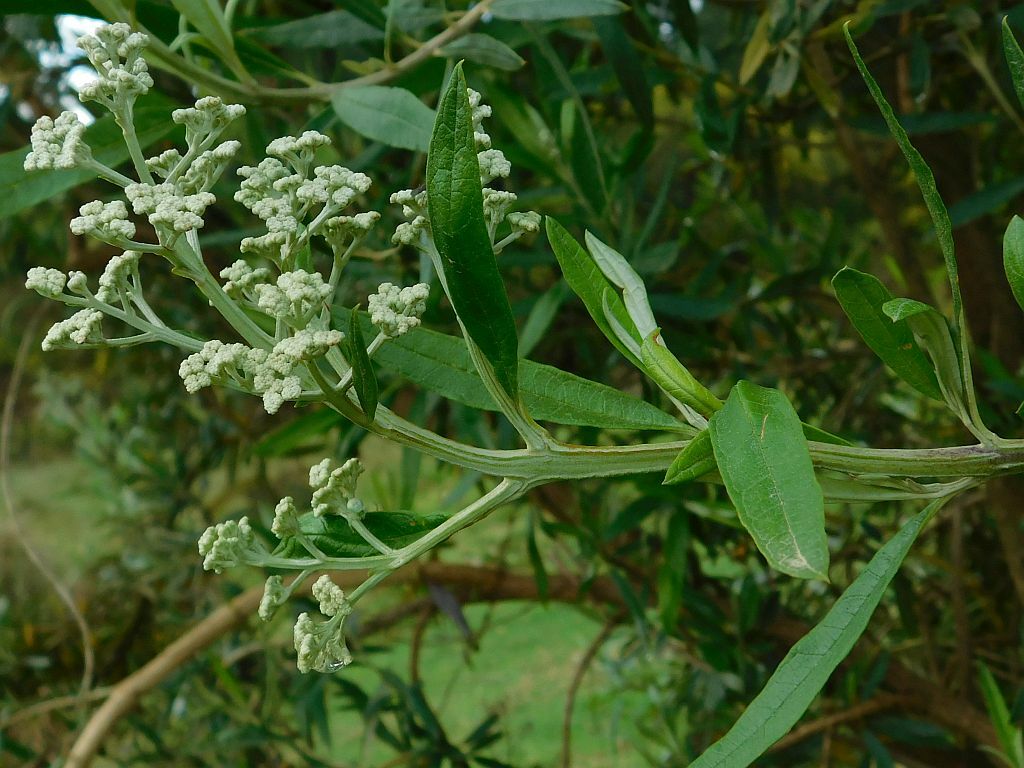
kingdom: Plantae
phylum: Tracheophyta
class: Magnoliopsida
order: Lamiales
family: Scrophulariaceae
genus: Buddleja
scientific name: Buddleja saligna
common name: False olive
